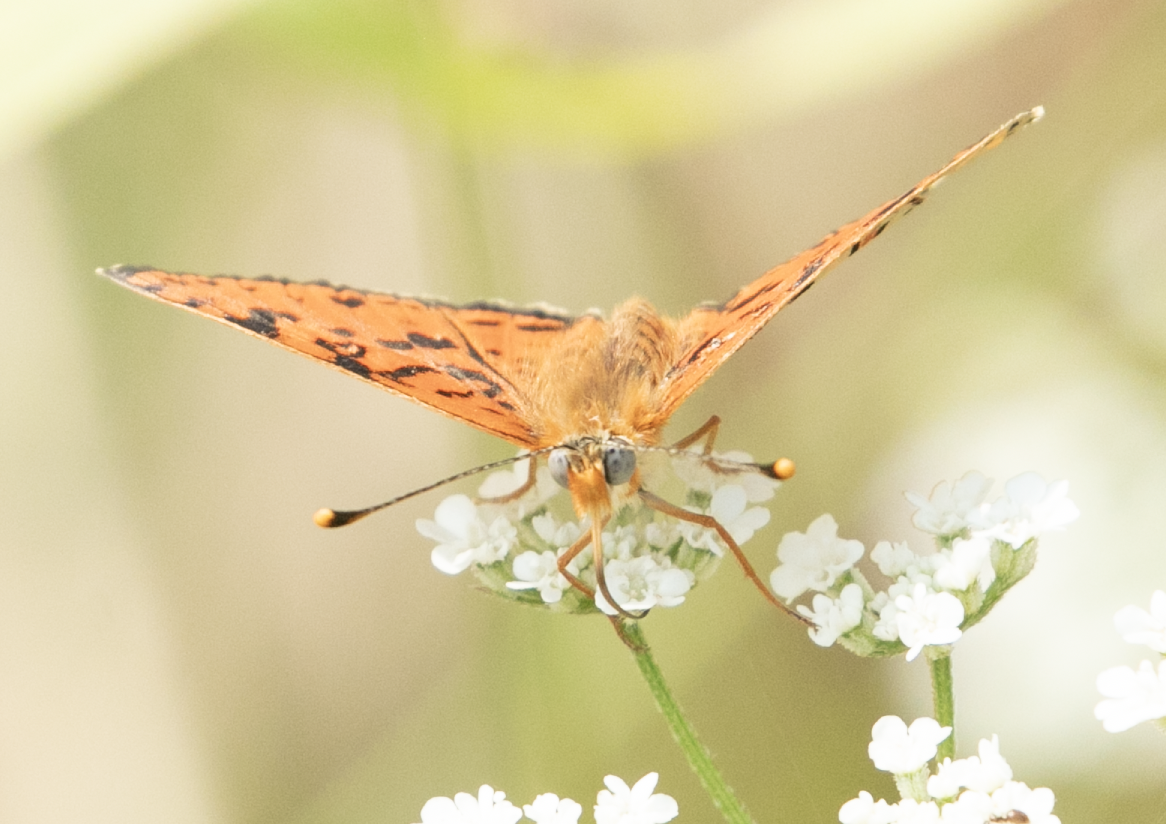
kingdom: Animalia
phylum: Arthropoda
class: Insecta
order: Lepidoptera
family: Nymphalidae
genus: Melitaea
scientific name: Melitaea didyma
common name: Spotted fritillary
